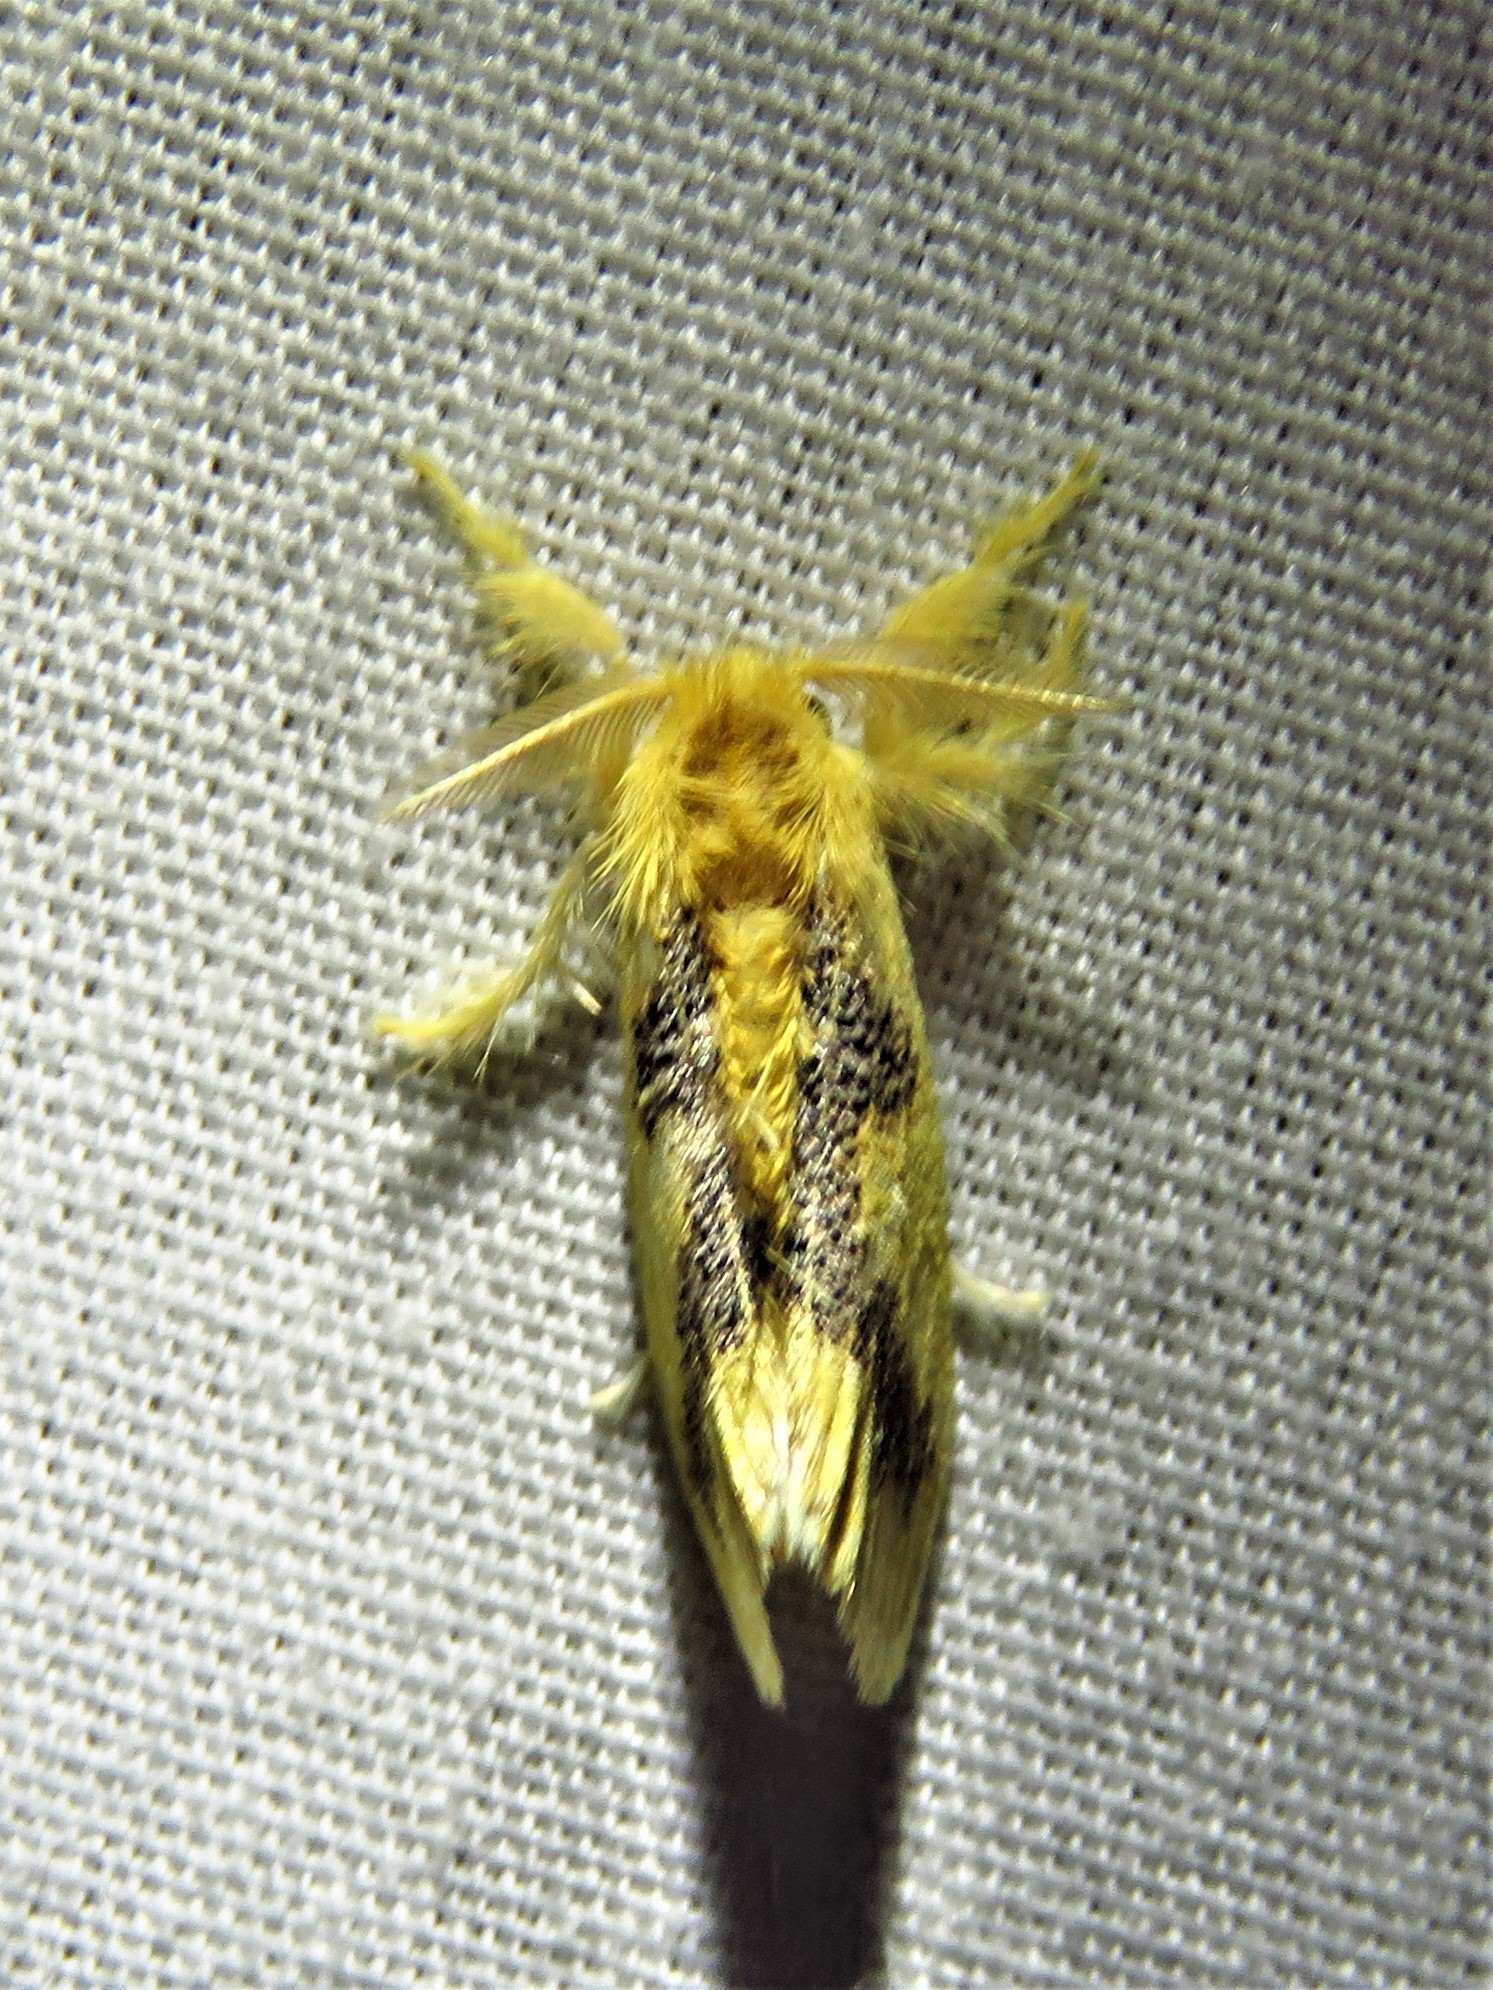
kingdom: Animalia
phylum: Arthropoda
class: Insecta
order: Lepidoptera
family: Erebidae
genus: Euproctis
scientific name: Euproctis aethiopica
